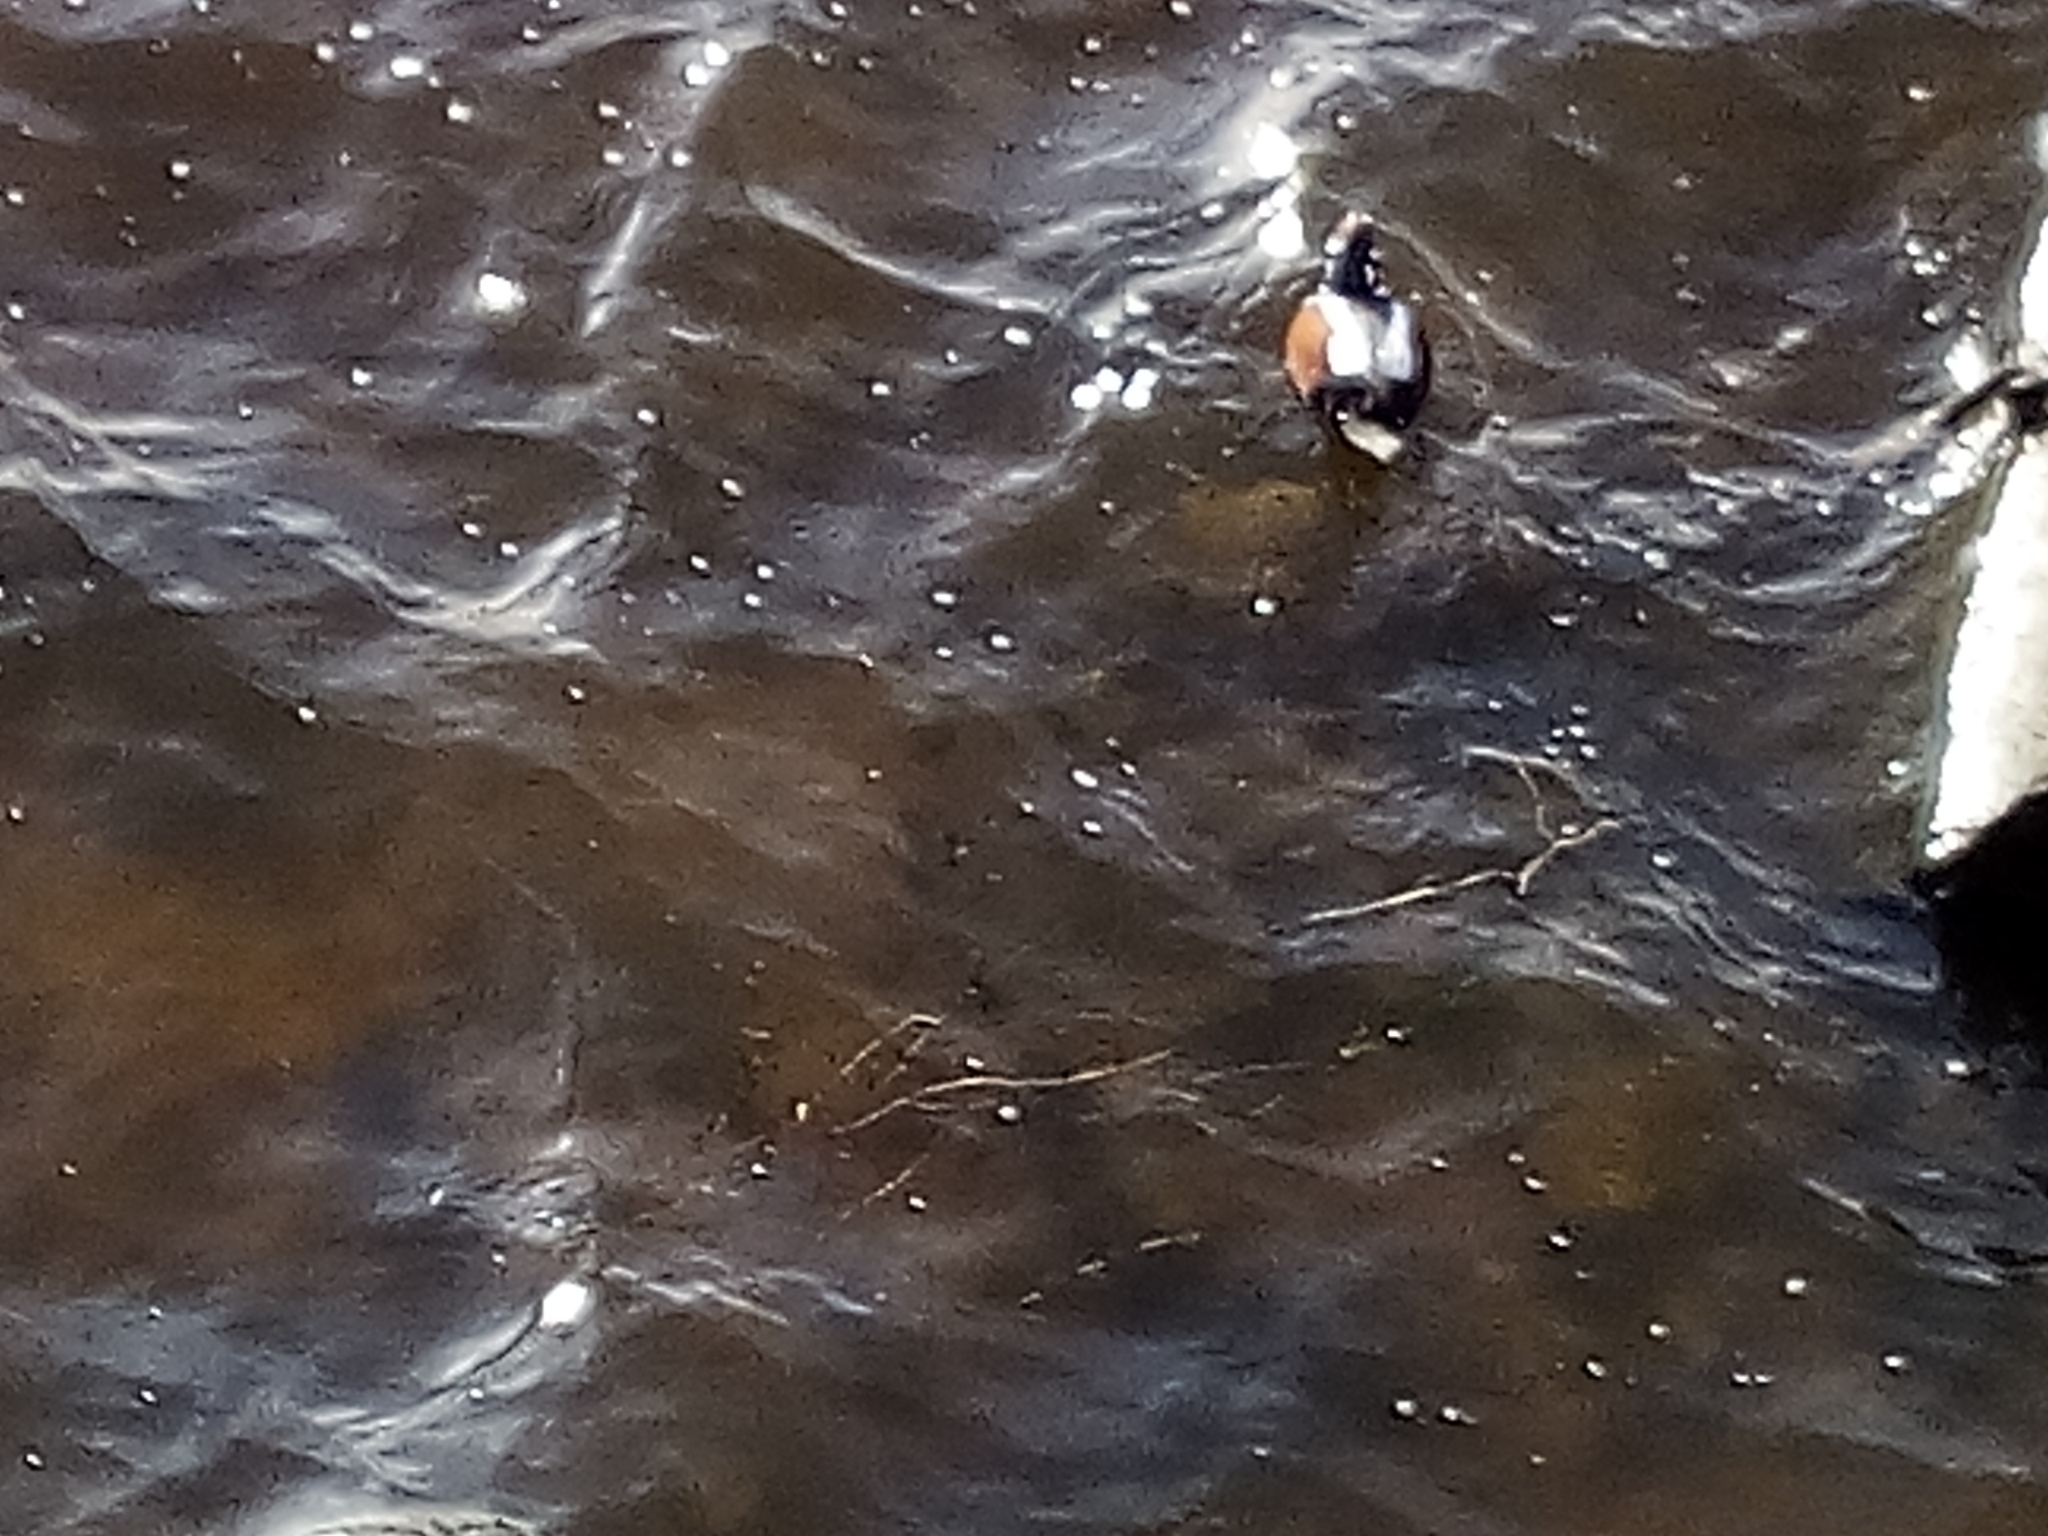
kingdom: Animalia
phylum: Chordata
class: Aves
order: Anseriformes
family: Anatidae
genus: Histrionicus
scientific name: Histrionicus histrionicus
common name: Harlequin duck
